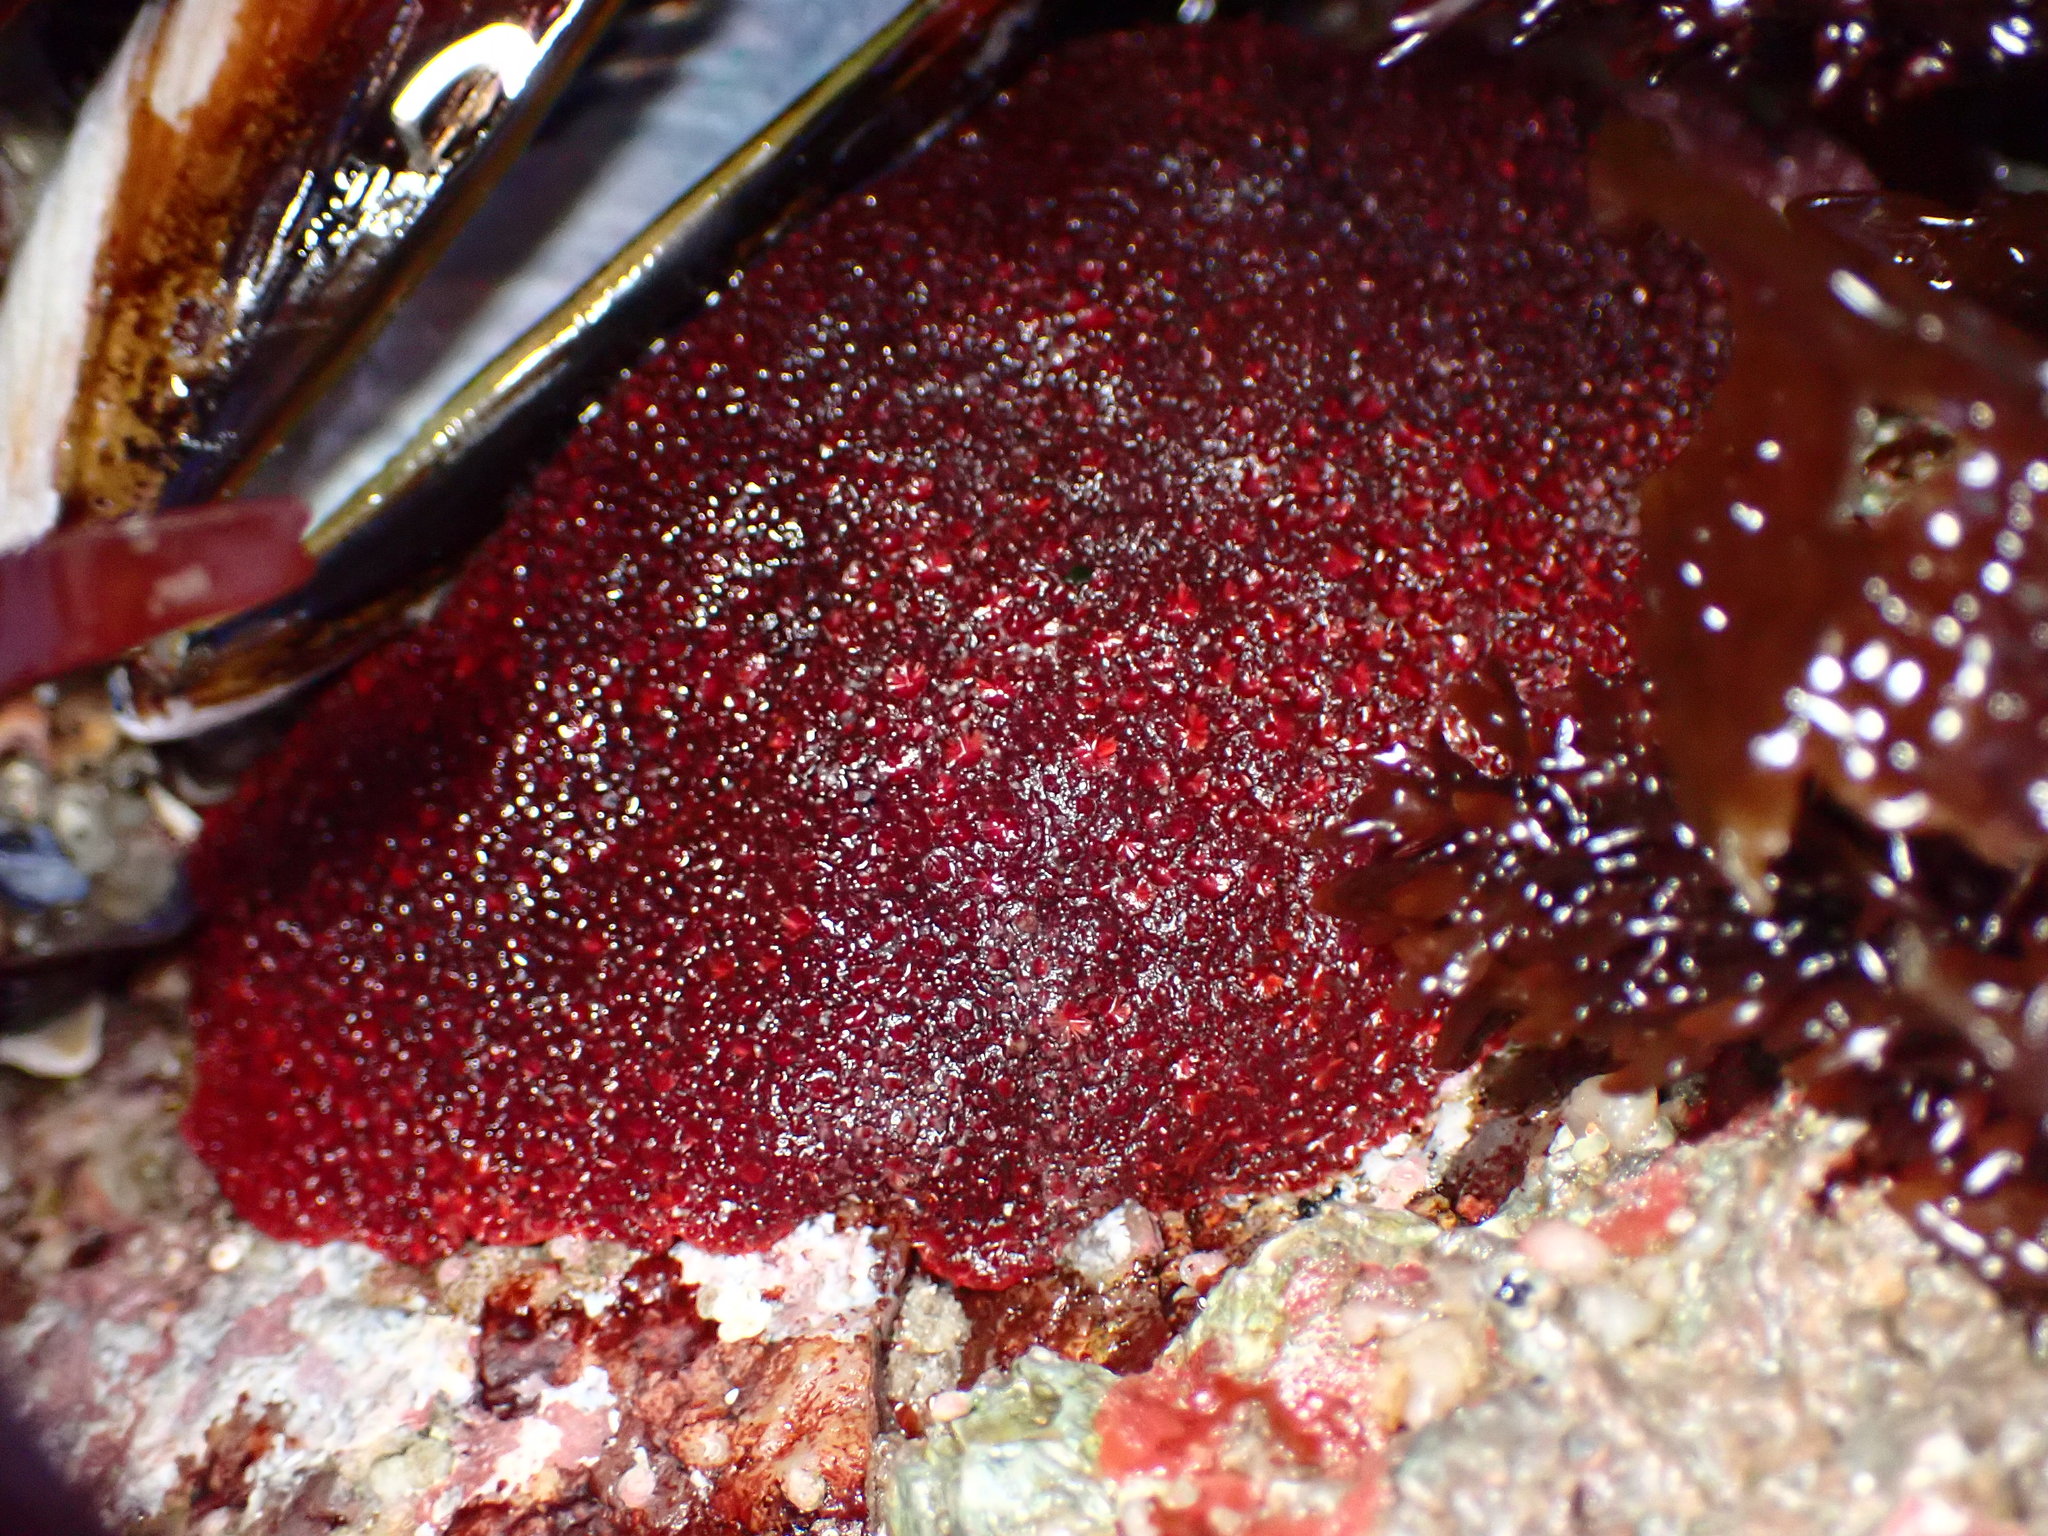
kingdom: Animalia
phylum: Mollusca
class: Polyplacophora
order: Chitonida
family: Acanthochitonidae
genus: Cryptochiton
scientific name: Cryptochiton stelleri
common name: Giant pacific chiton
